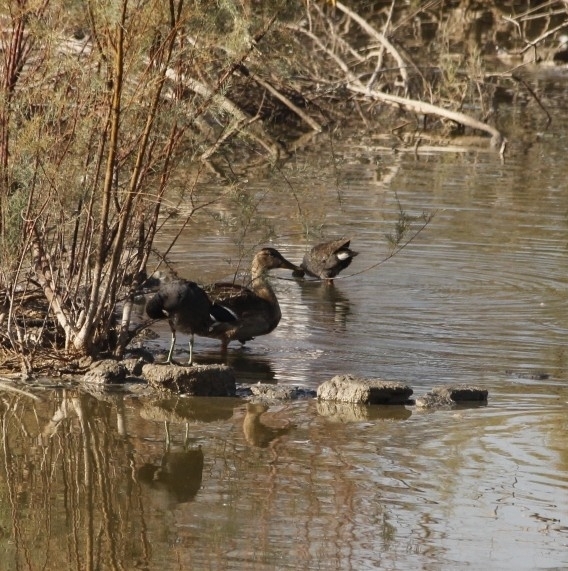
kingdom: Animalia
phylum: Chordata
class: Aves
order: Anseriformes
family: Anatidae
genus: Anas
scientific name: Anas platyrhynchos
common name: Mallard
